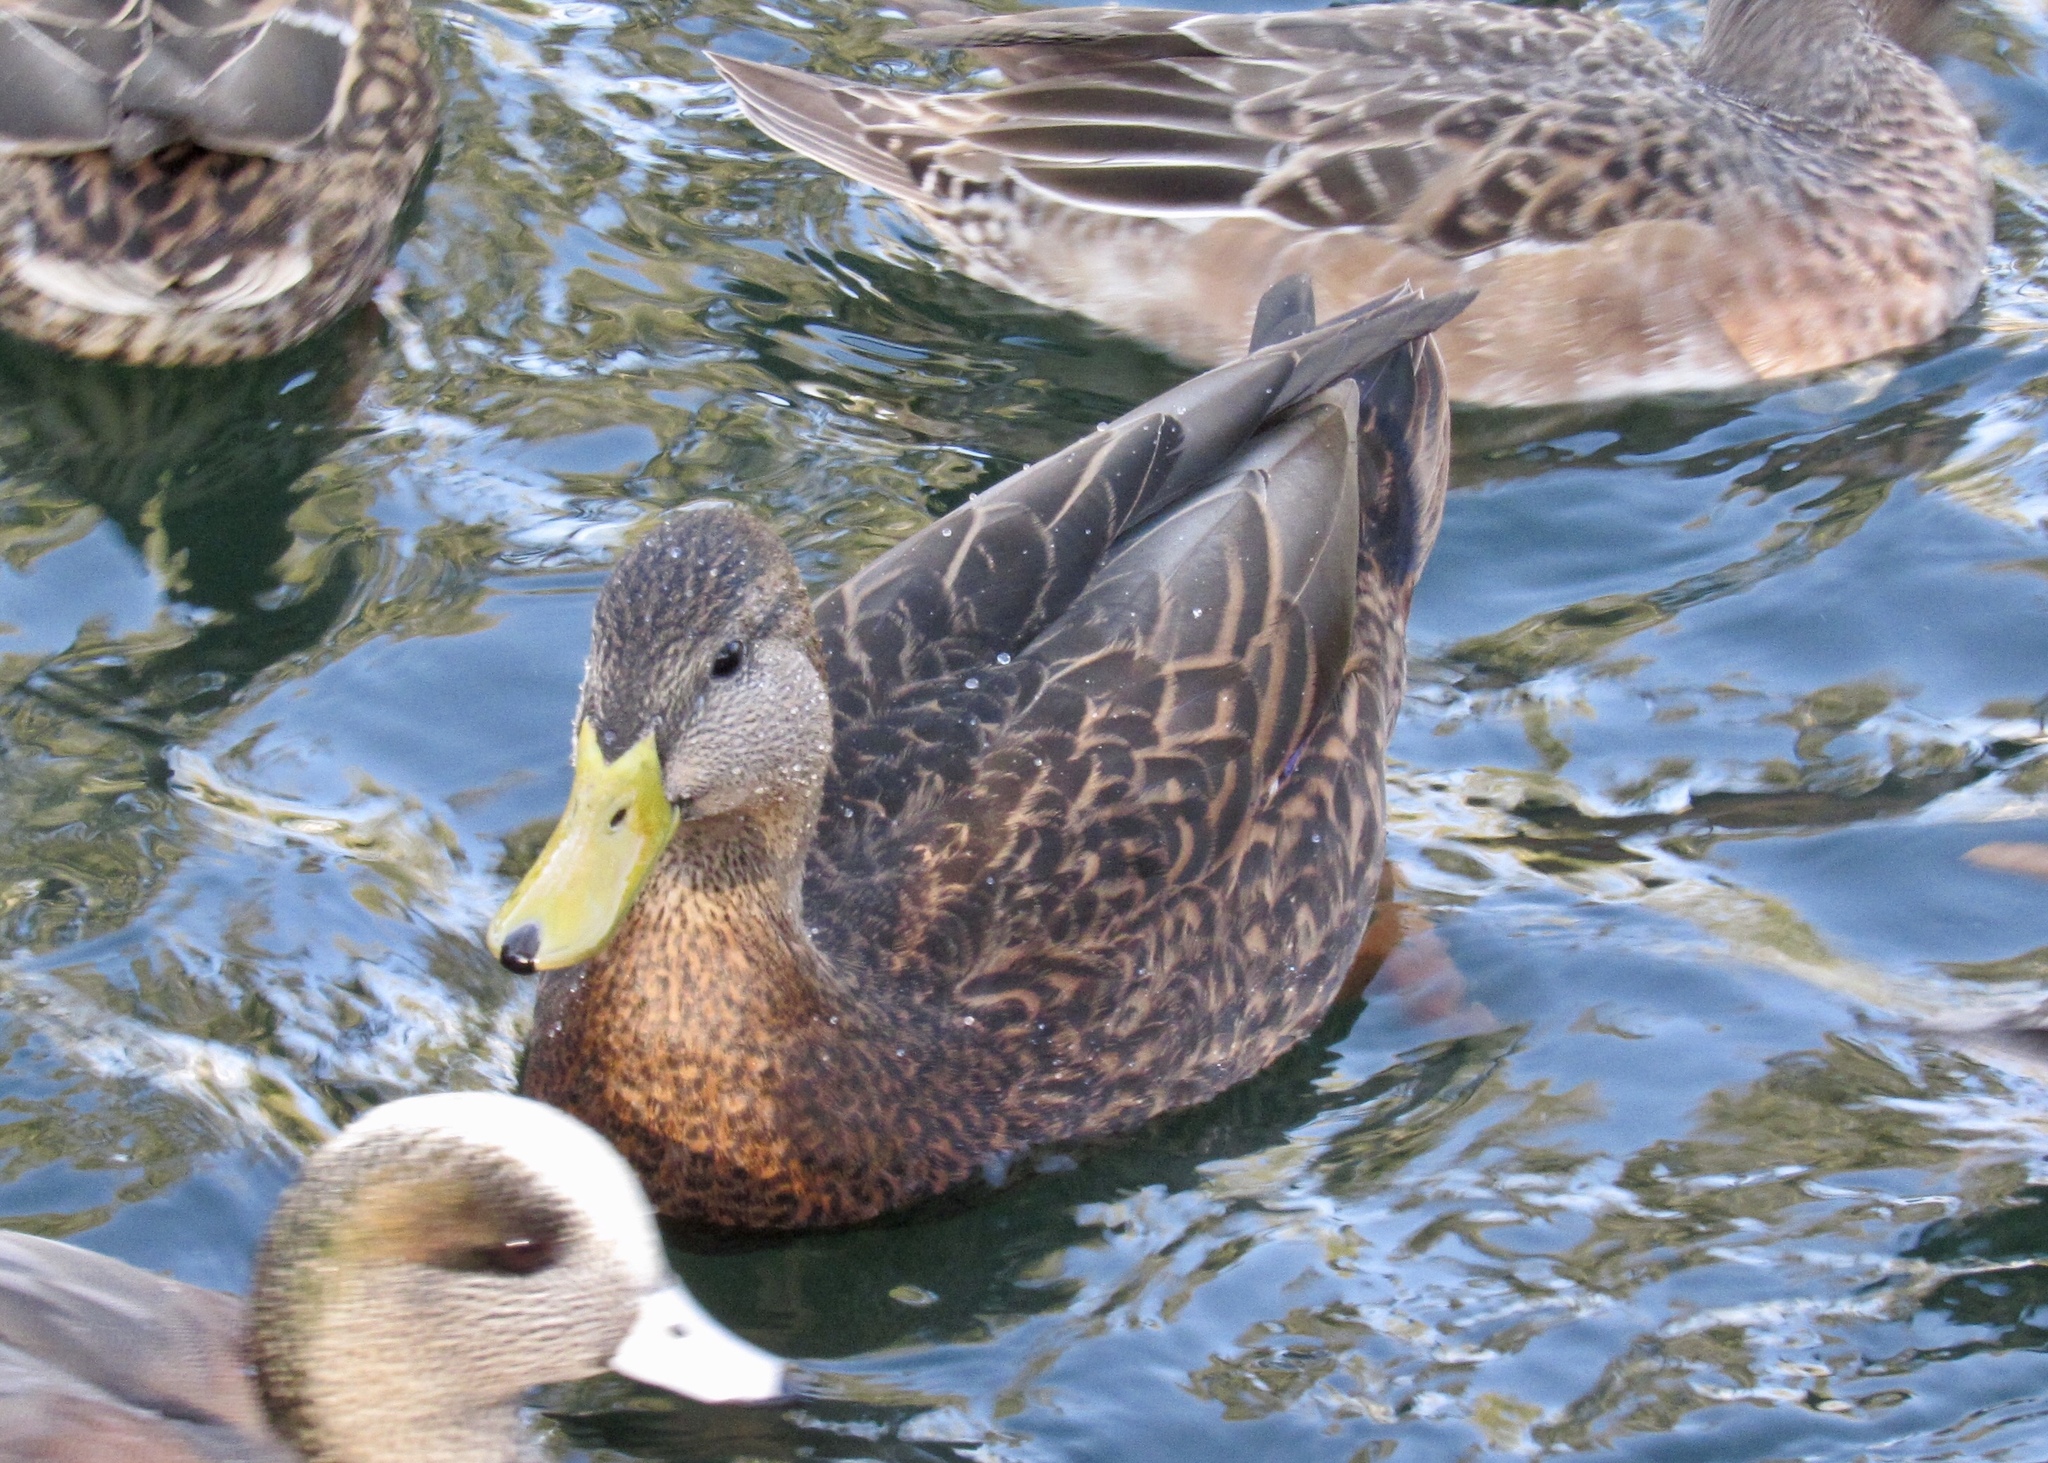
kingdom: Animalia
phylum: Chordata
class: Aves
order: Anseriformes
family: Anatidae
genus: Anas
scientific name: Anas
